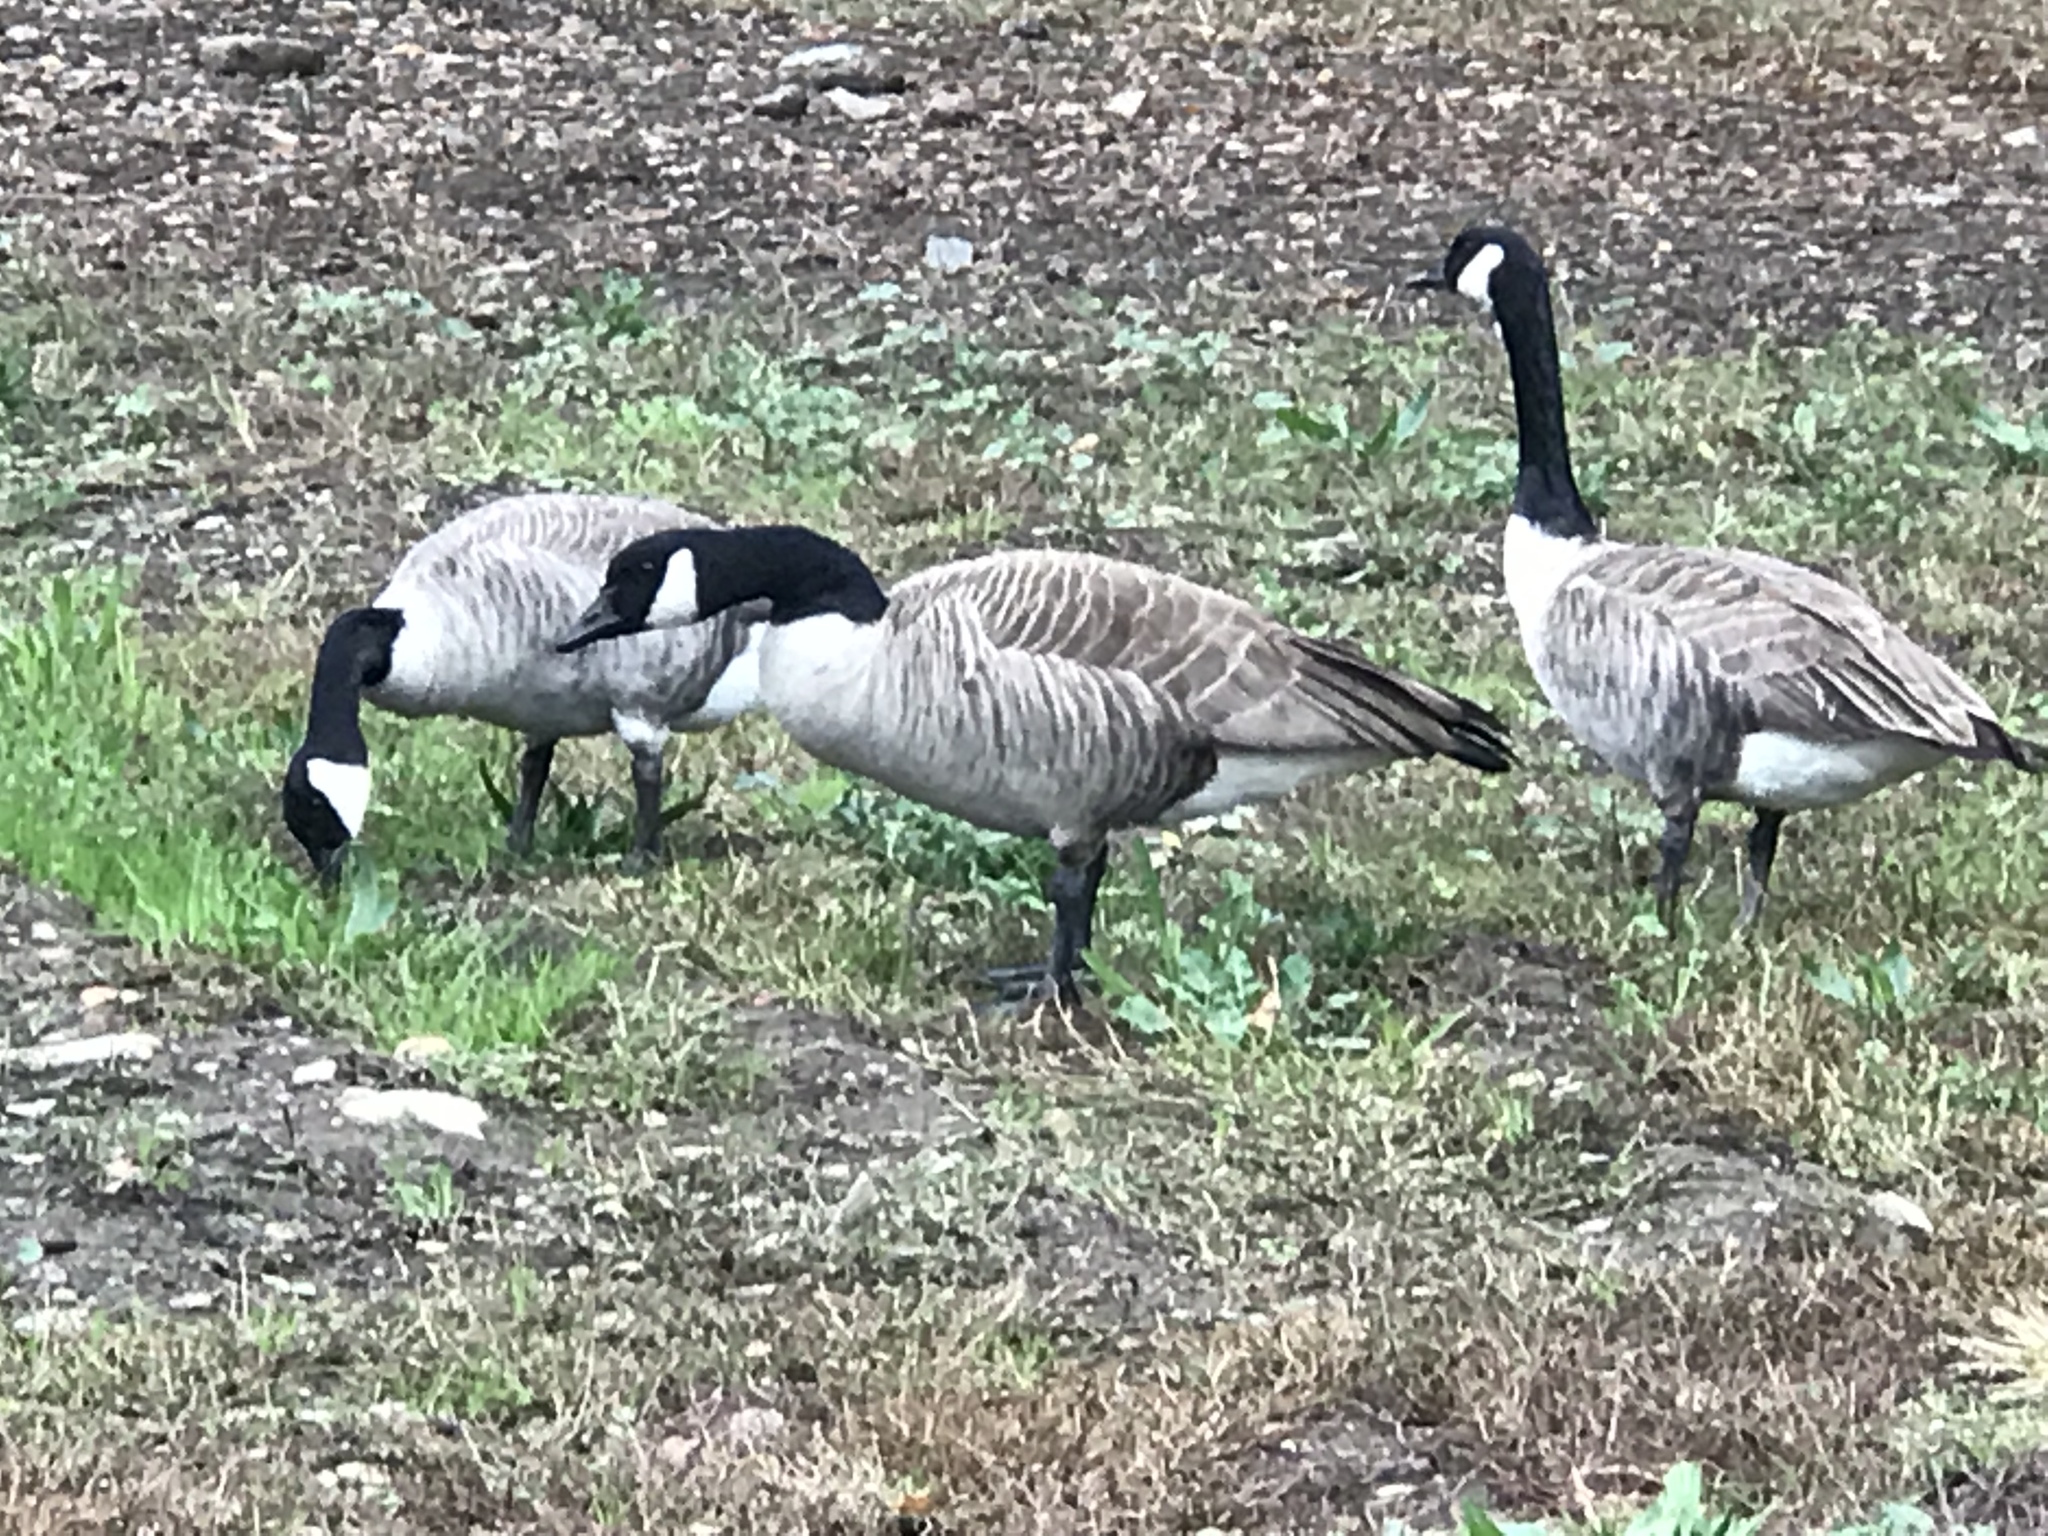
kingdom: Animalia
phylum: Chordata
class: Aves
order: Anseriformes
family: Anatidae
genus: Branta
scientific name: Branta canadensis
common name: Canada goose
